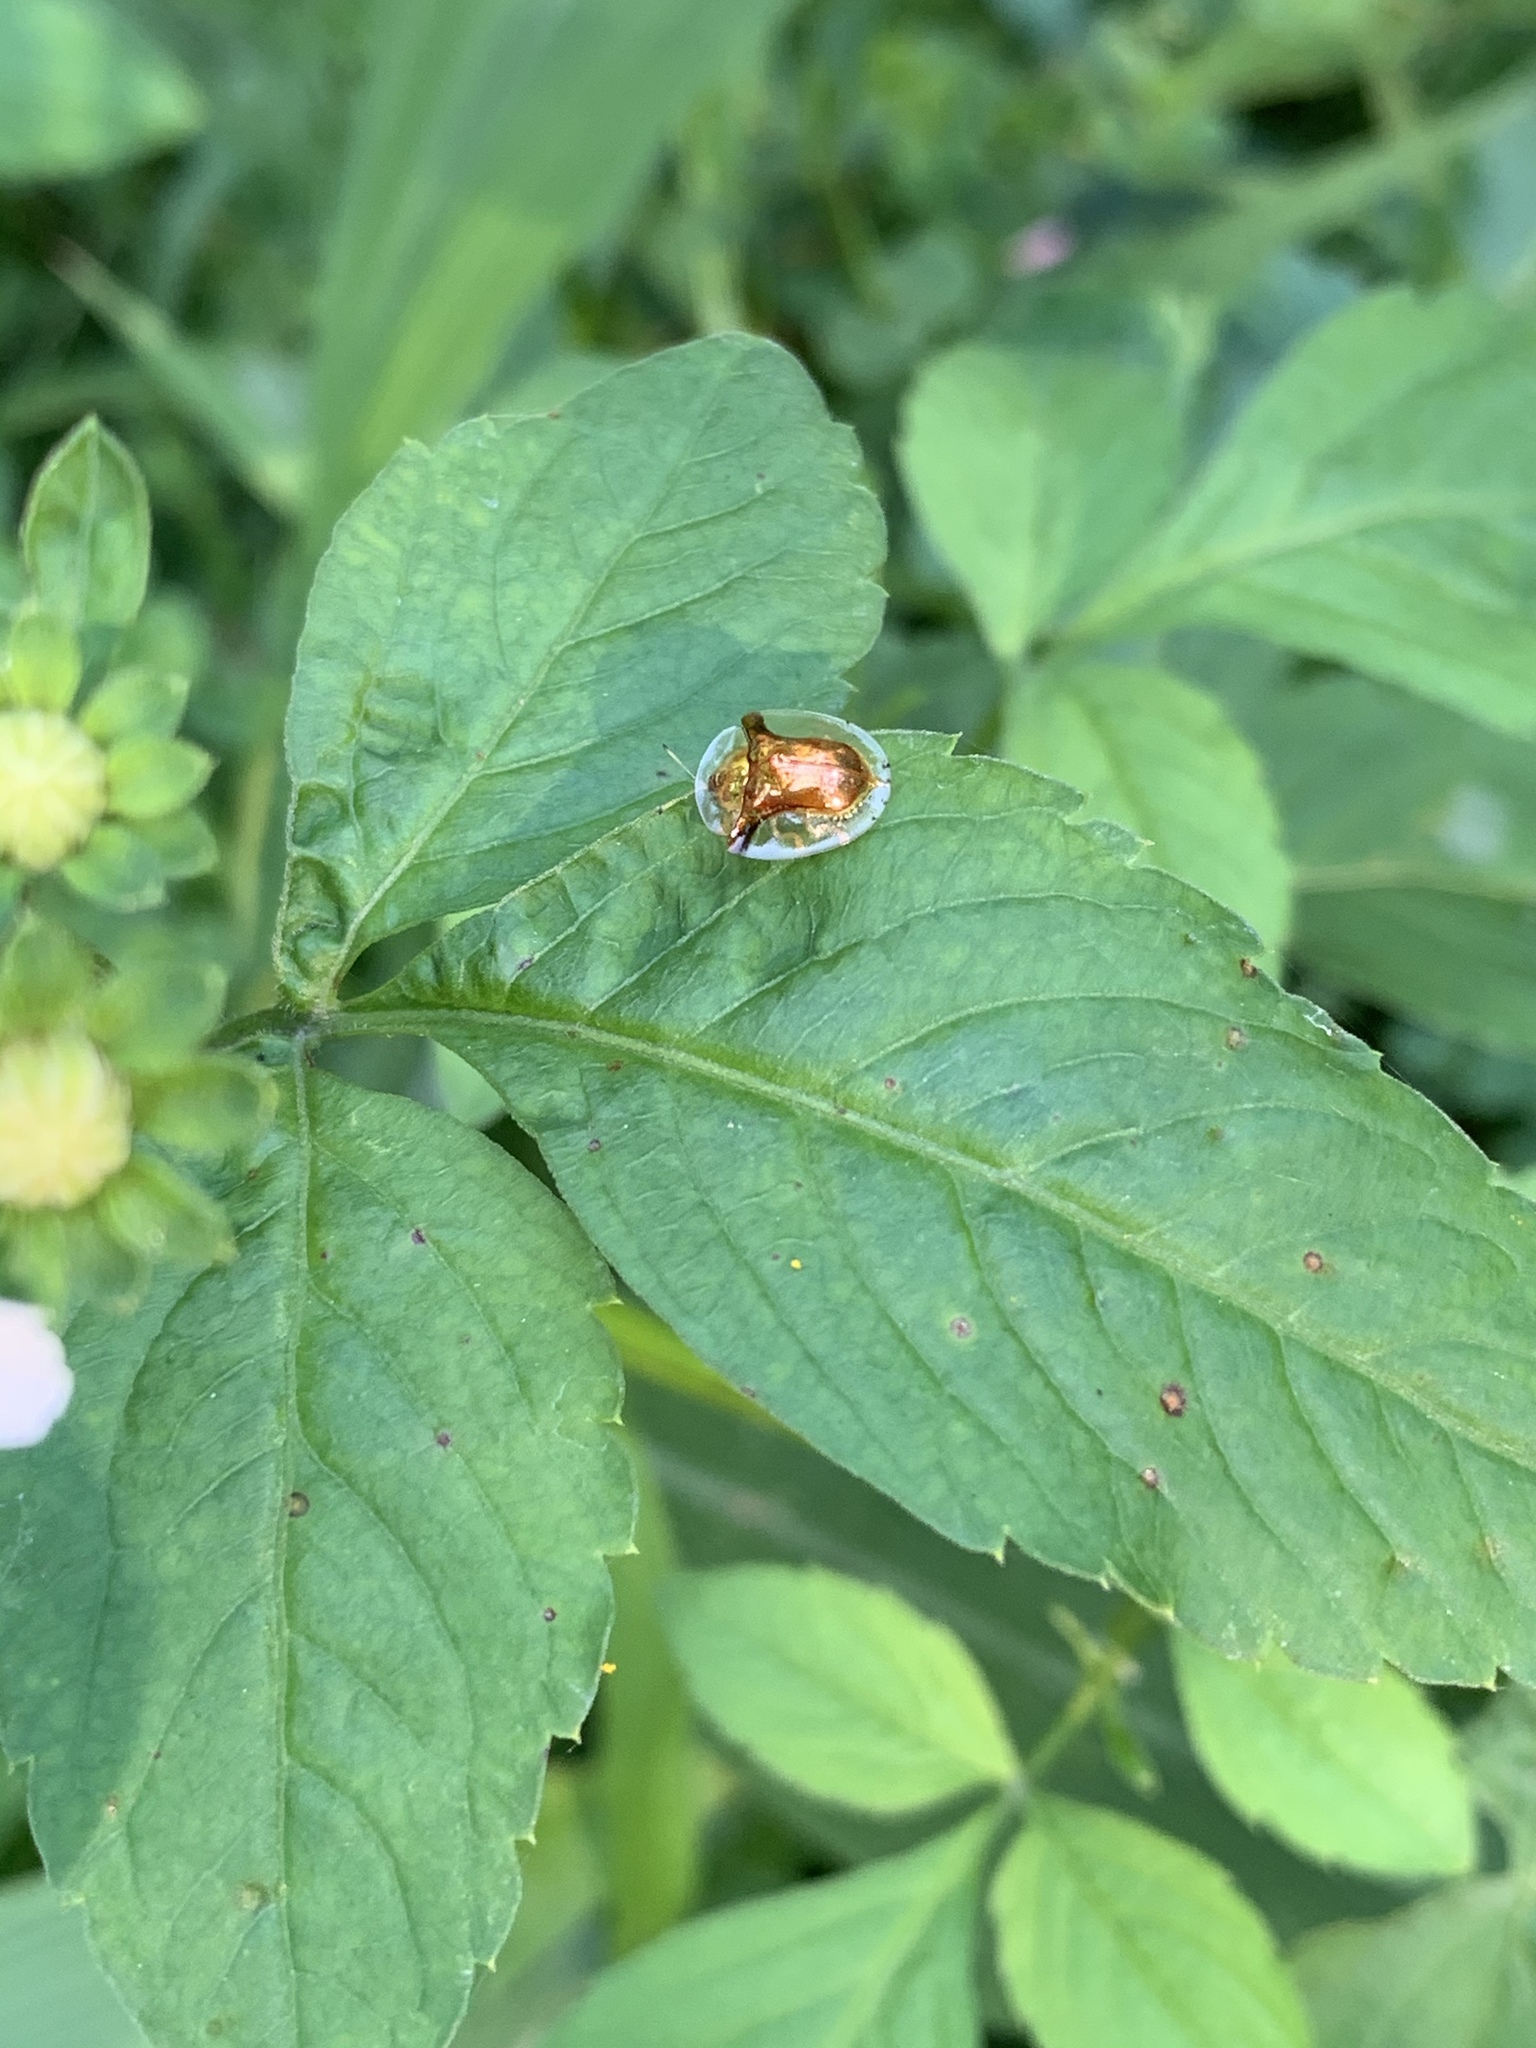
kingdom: Animalia
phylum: Arthropoda
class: Insecta
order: Coleoptera
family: Chrysomelidae
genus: Aspidimorpha
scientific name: Aspidimorpha furcata
